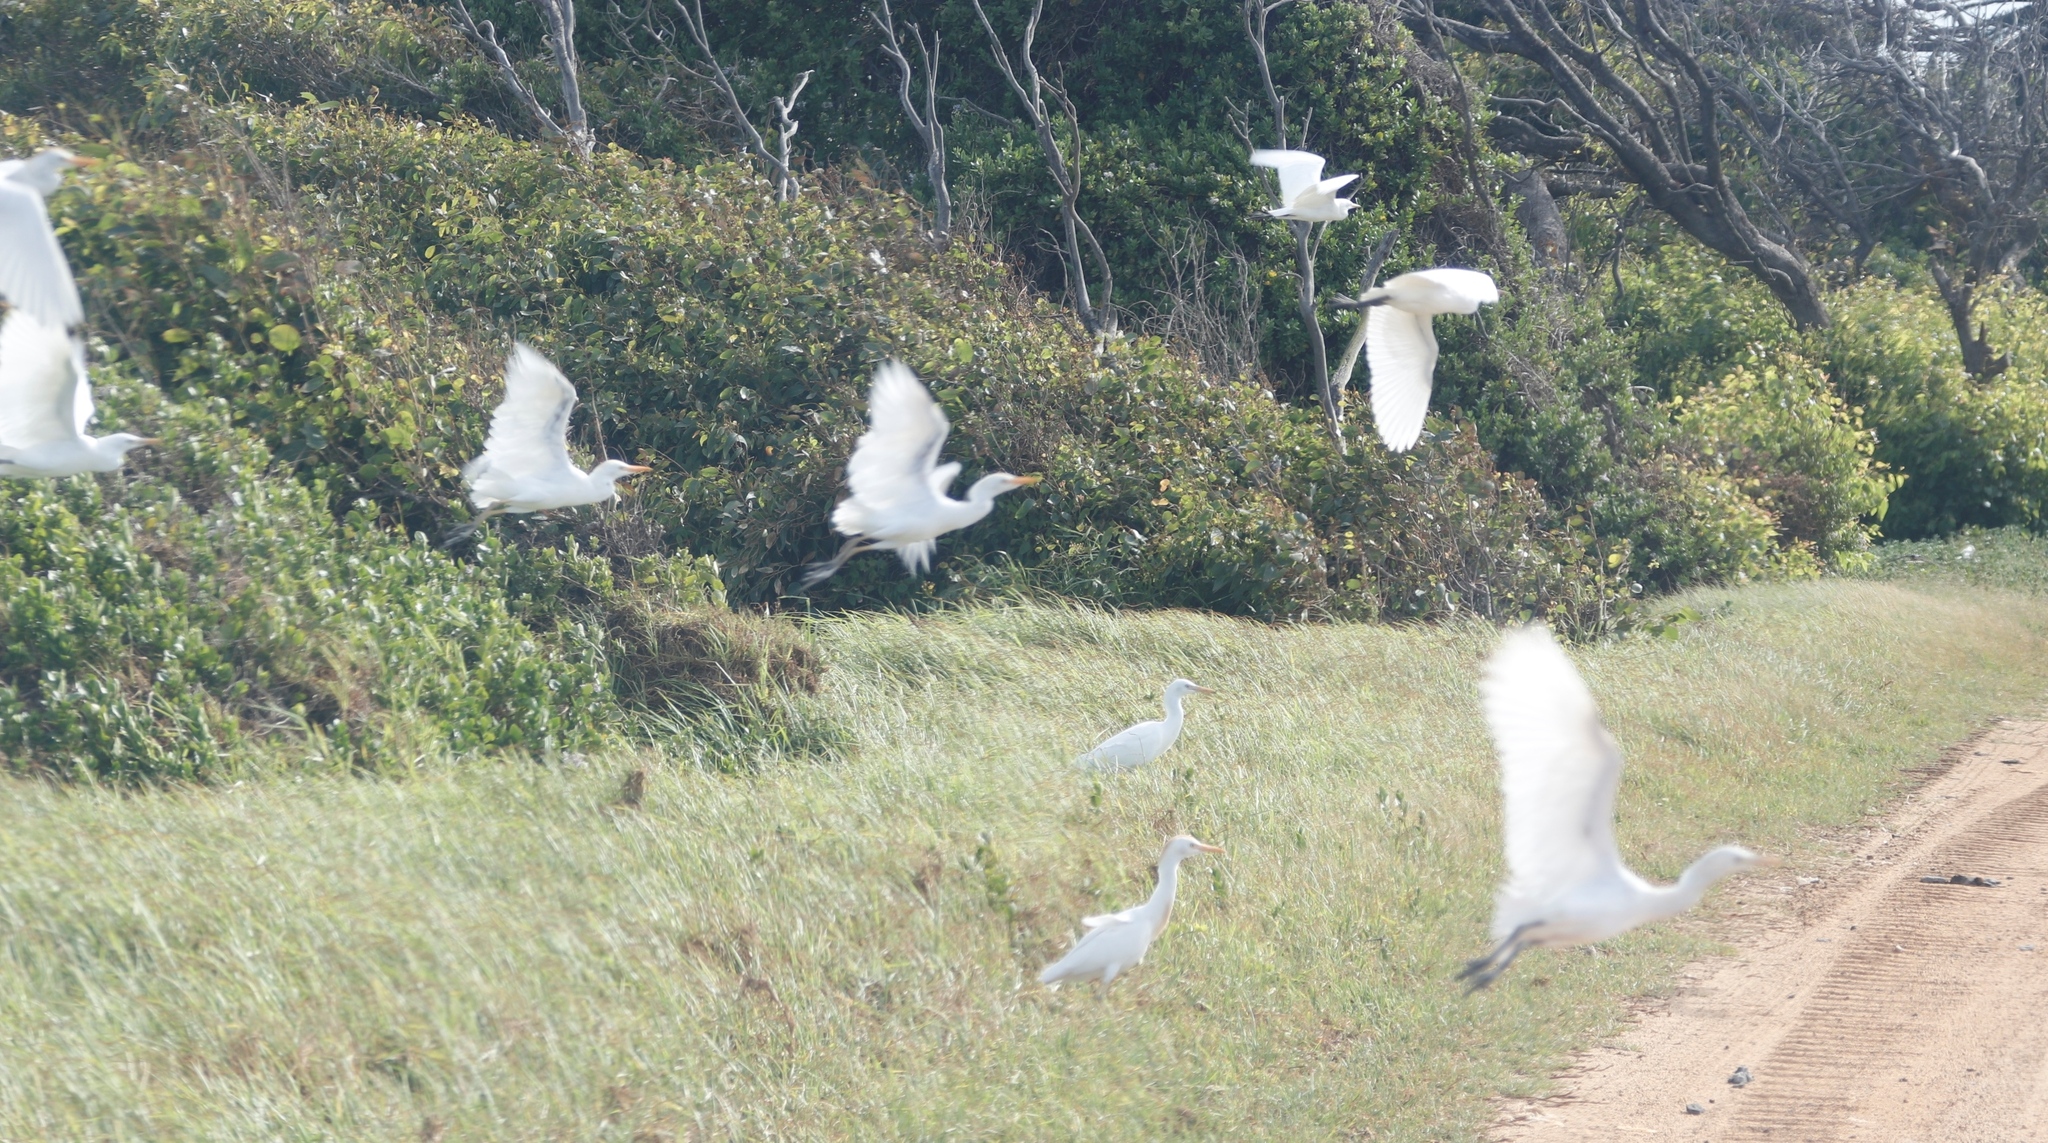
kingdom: Animalia
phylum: Chordata
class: Aves
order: Pelecaniformes
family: Ardeidae
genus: Bubulcus
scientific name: Bubulcus ibis
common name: Cattle egret
